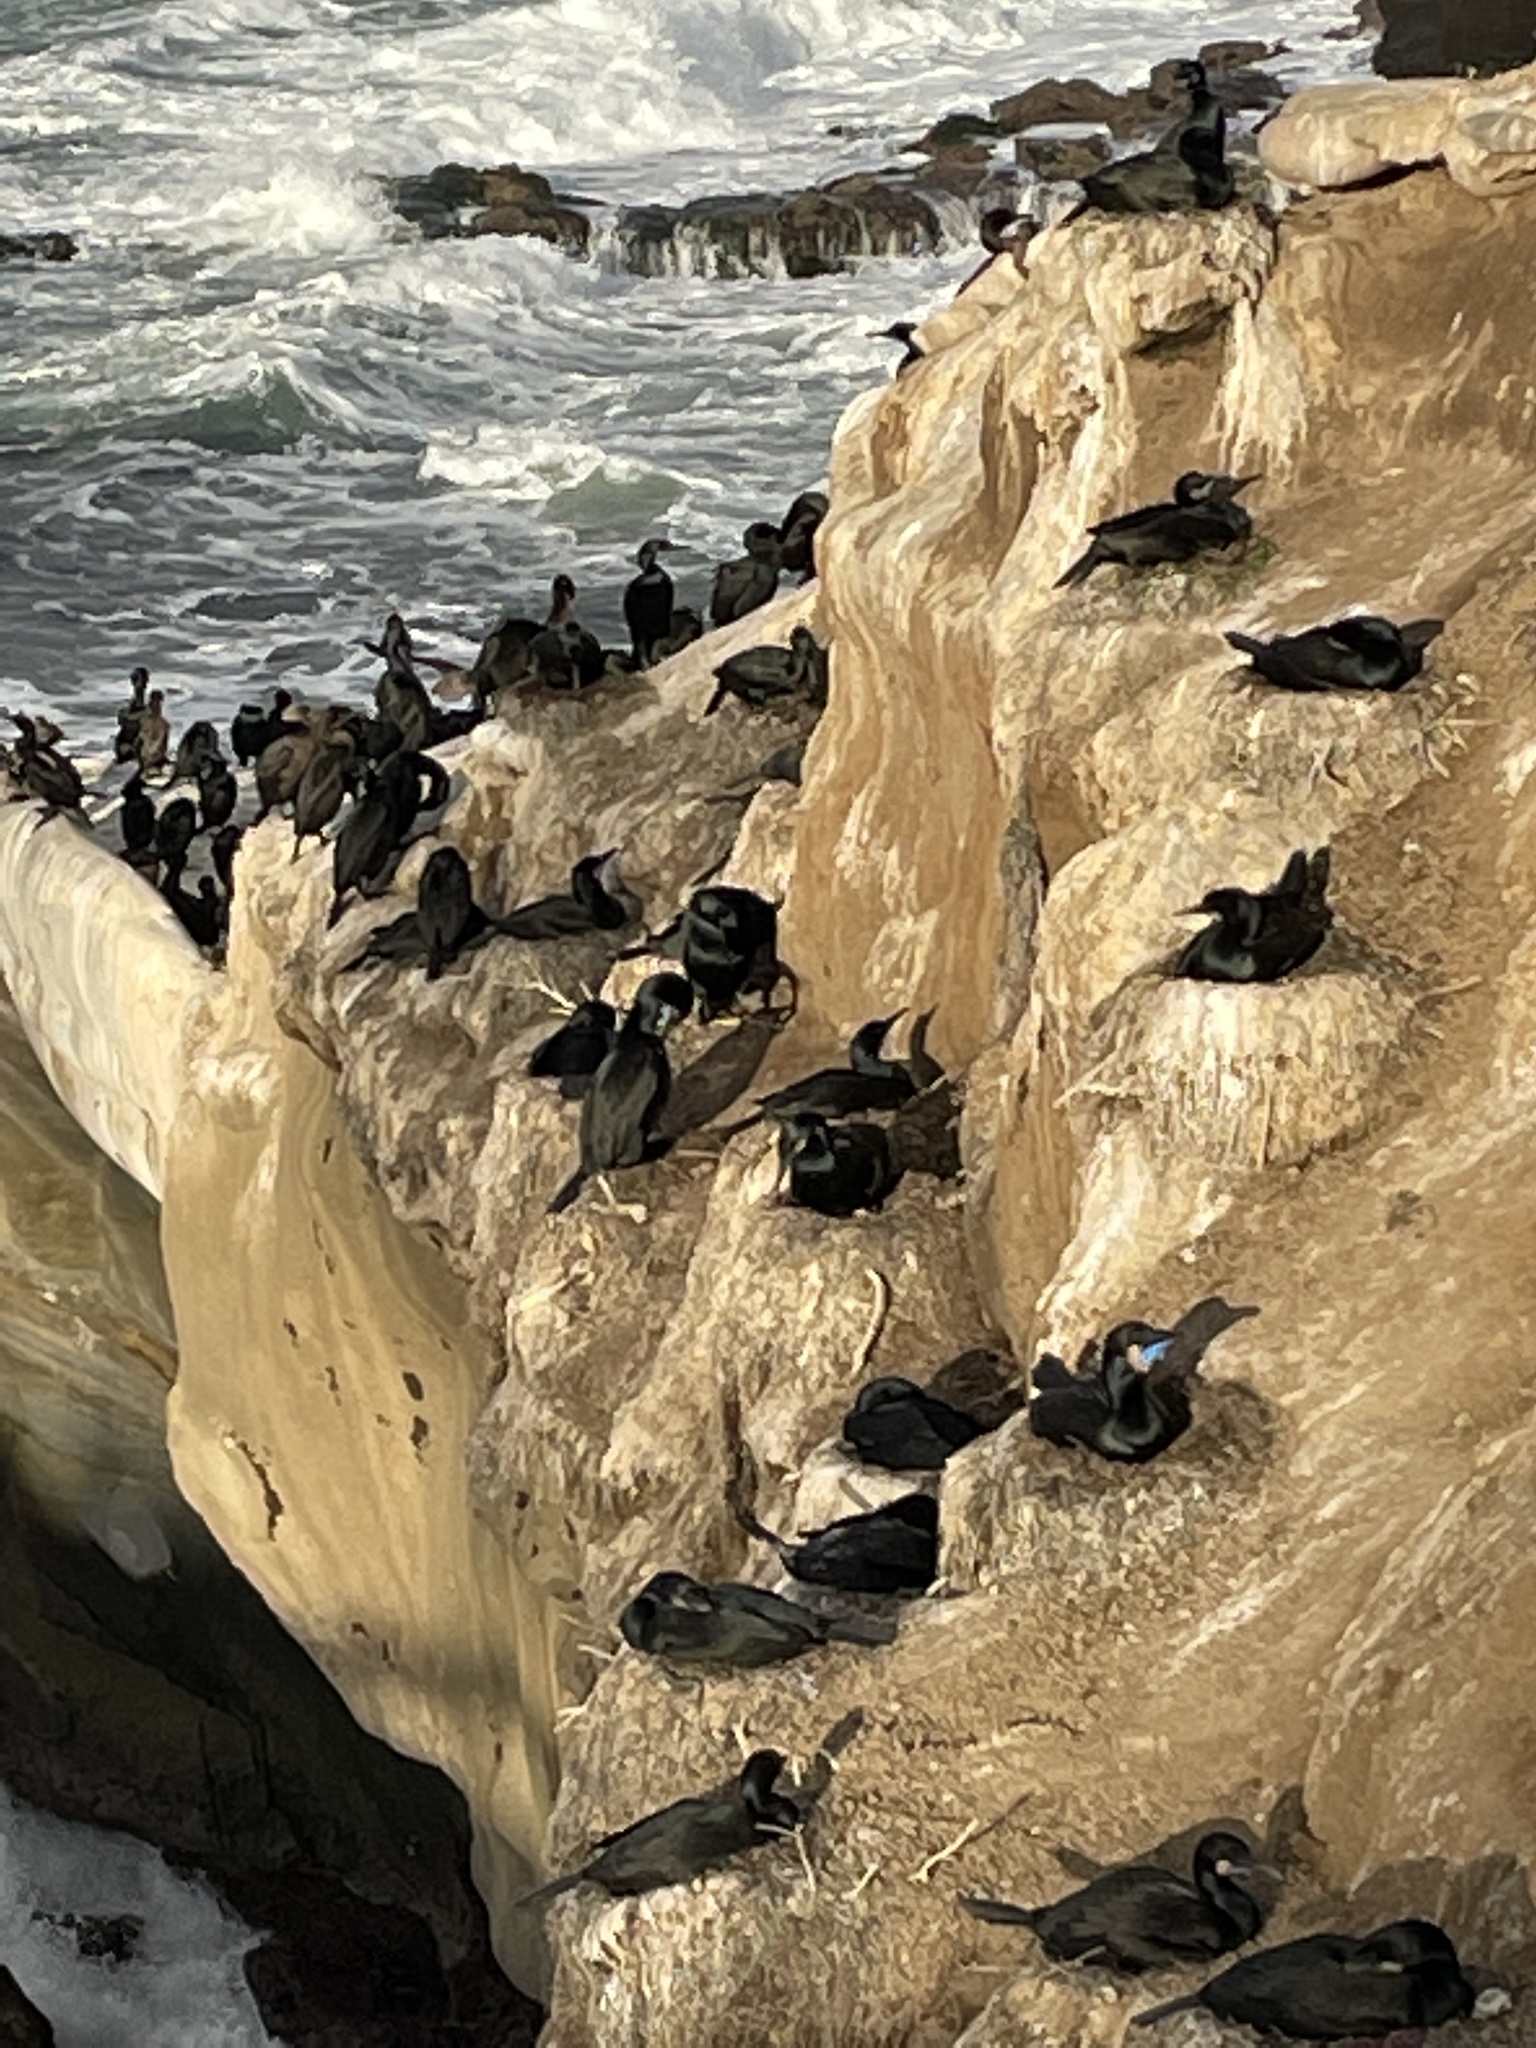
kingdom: Animalia
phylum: Chordata
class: Aves
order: Suliformes
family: Phalacrocoracidae
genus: Urile
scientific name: Urile penicillatus
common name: Brandt's cormorant
